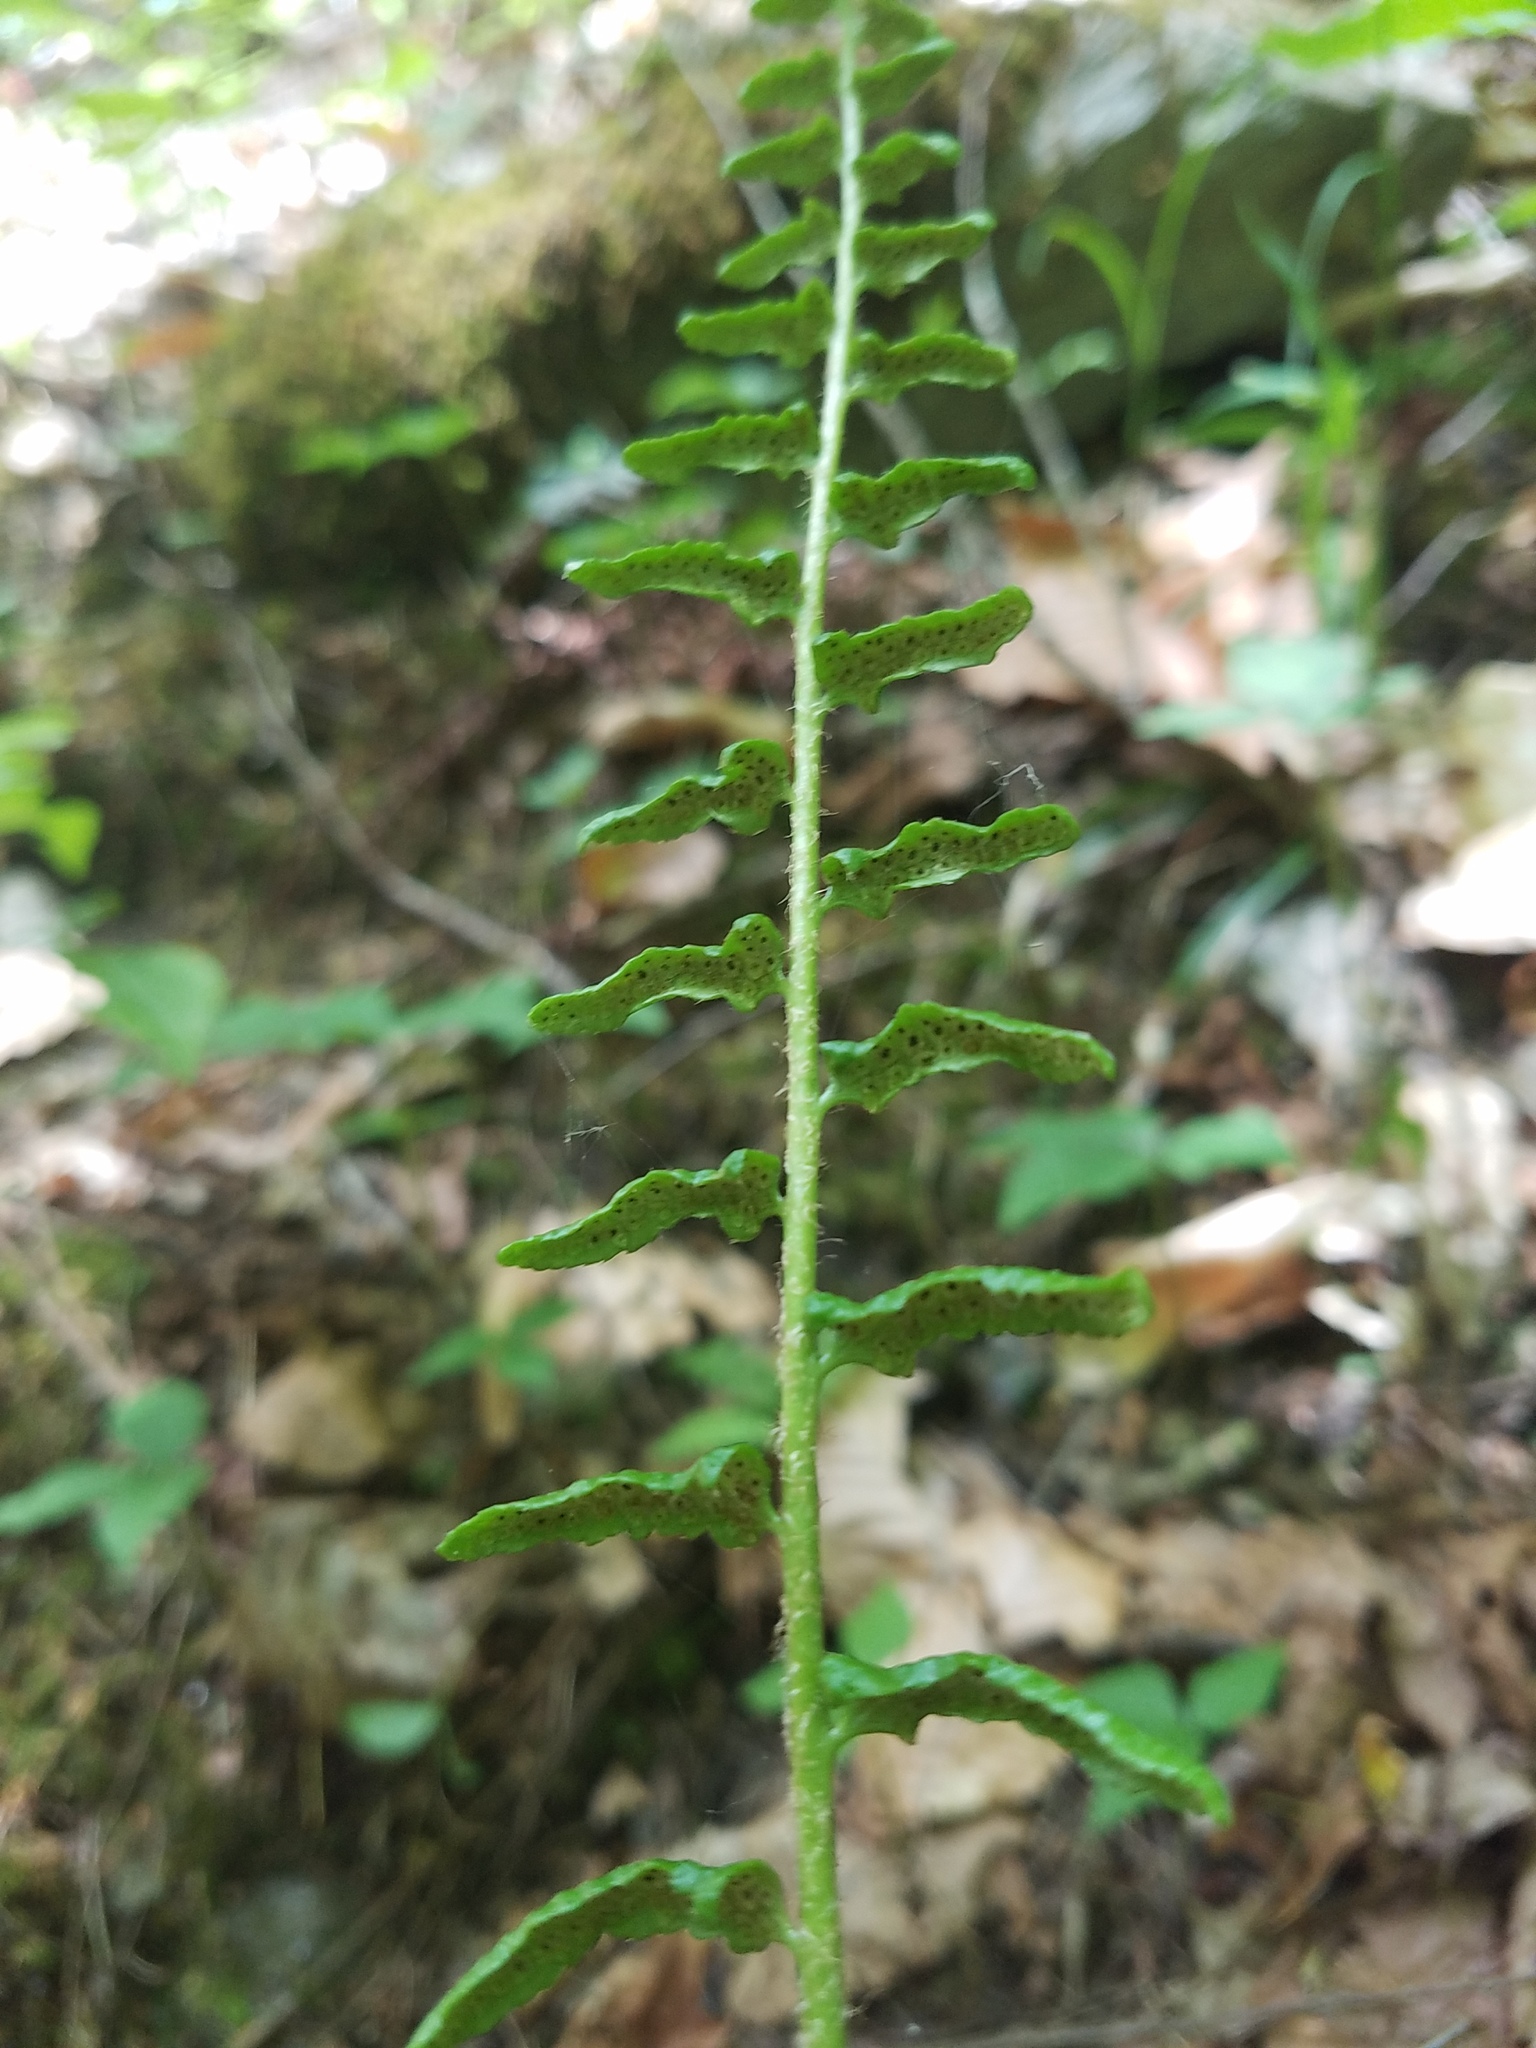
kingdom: Plantae
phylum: Tracheophyta
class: Polypodiopsida
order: Polypodiales
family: Dryopteridaceae
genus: Polystichum
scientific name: Polystichum acrostichoides
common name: Christmas fern
